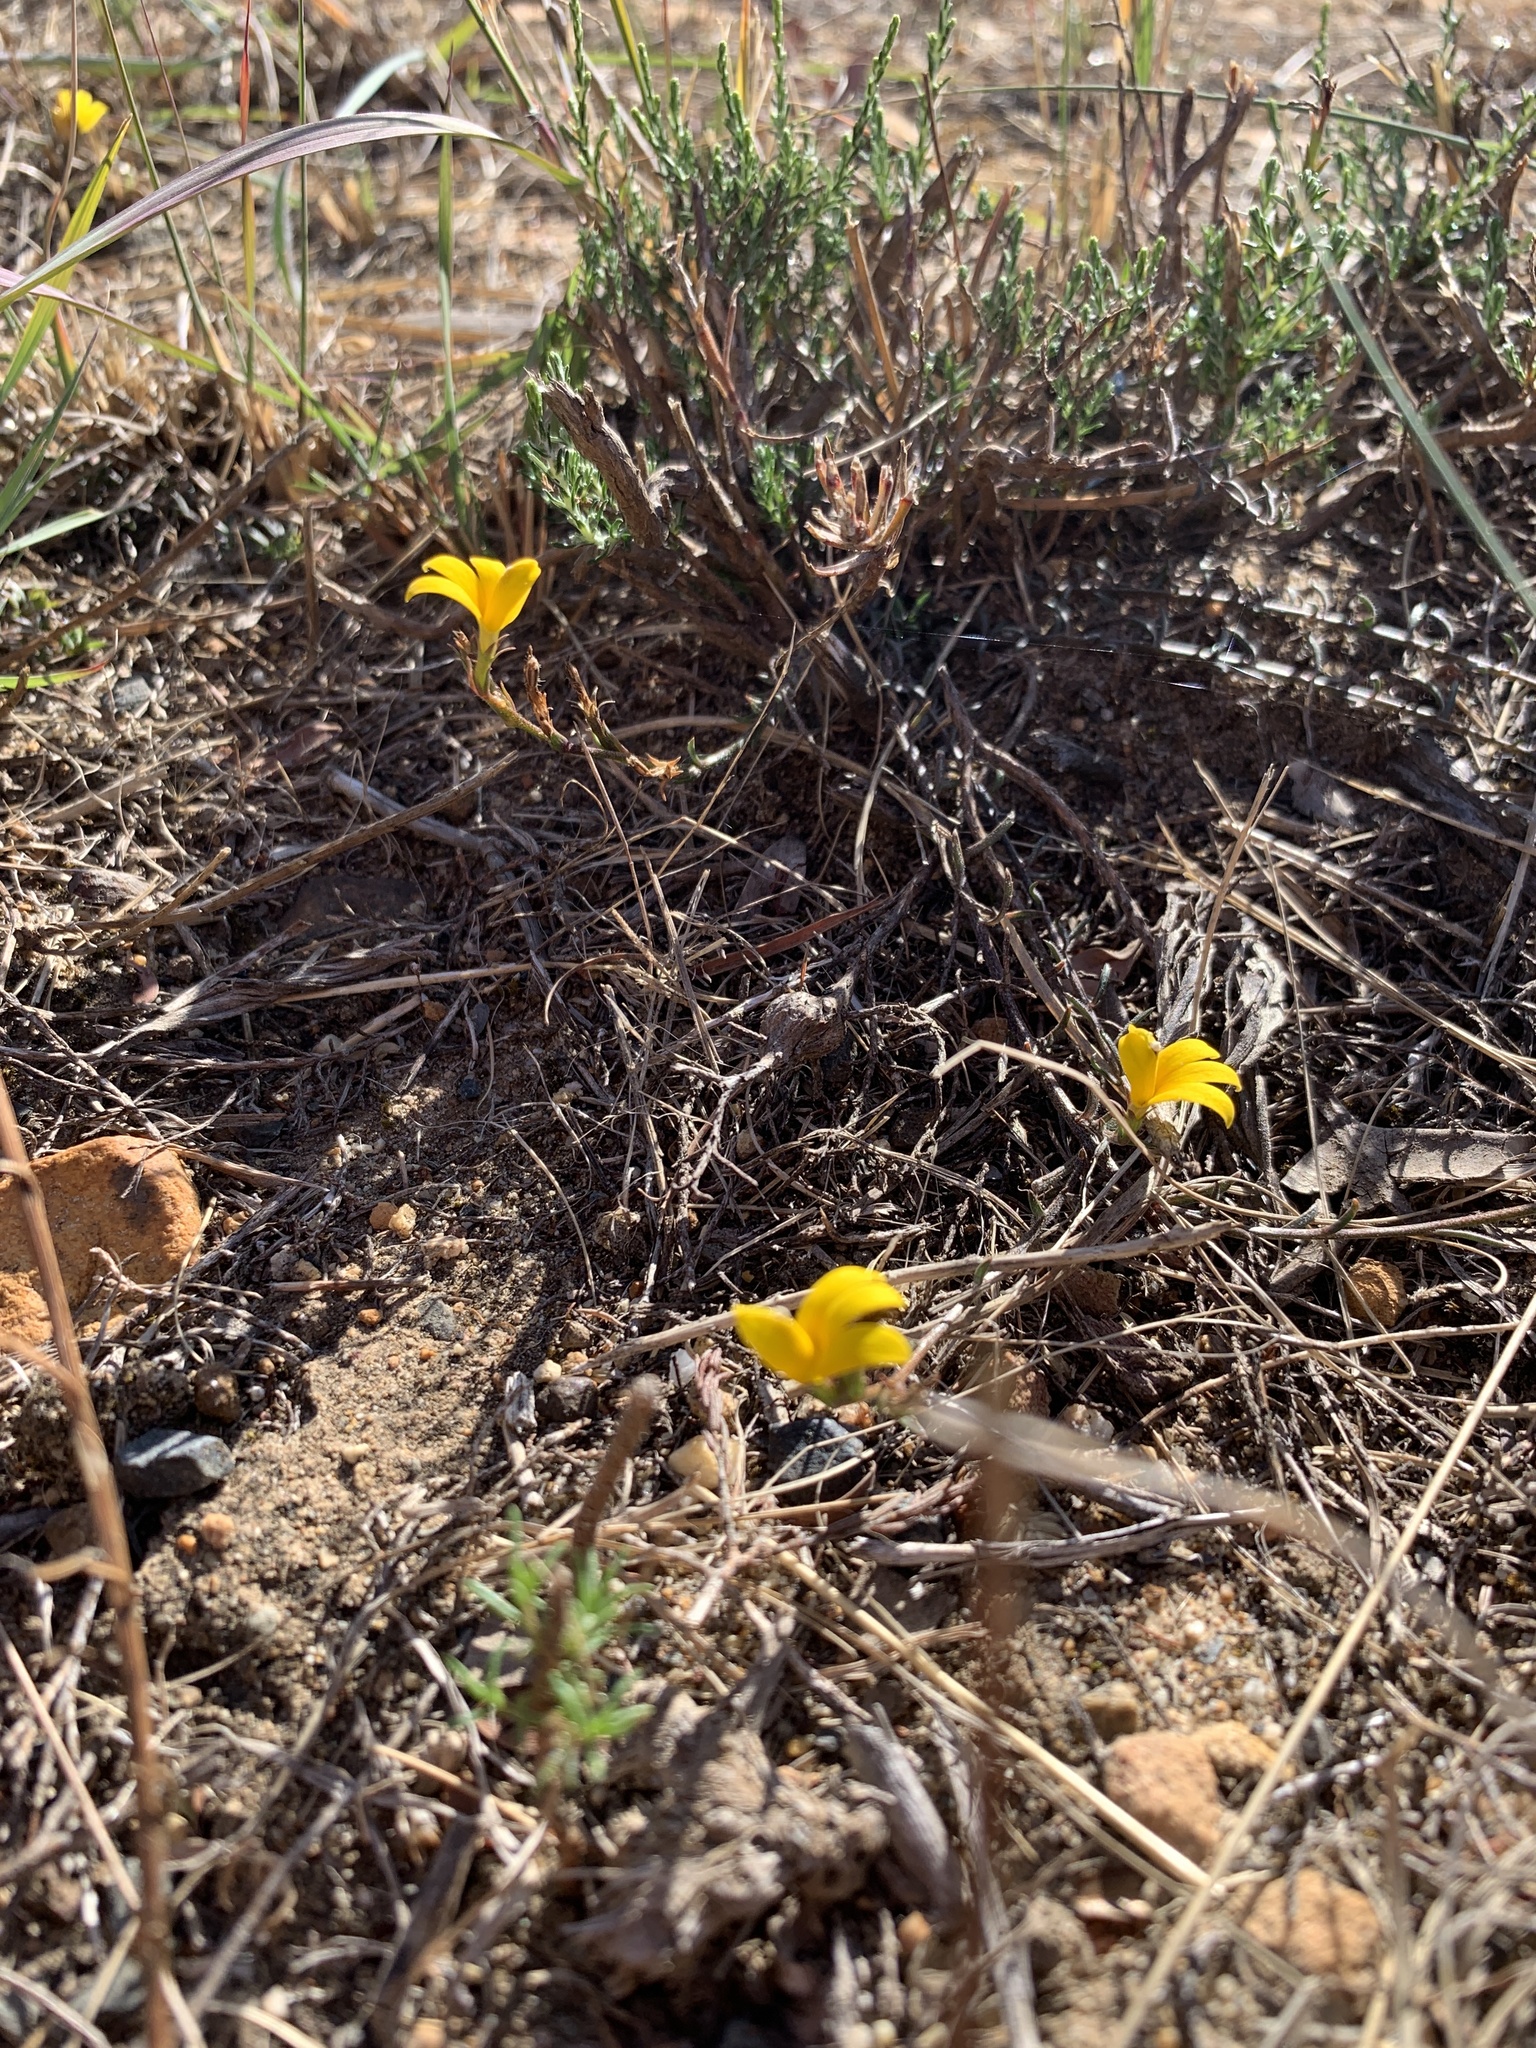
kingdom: Plantae
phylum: Tracheophyta
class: Magnoliopsida
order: Asterales
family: Campanulaceae
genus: Monopsis
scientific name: Monopsis lutea
